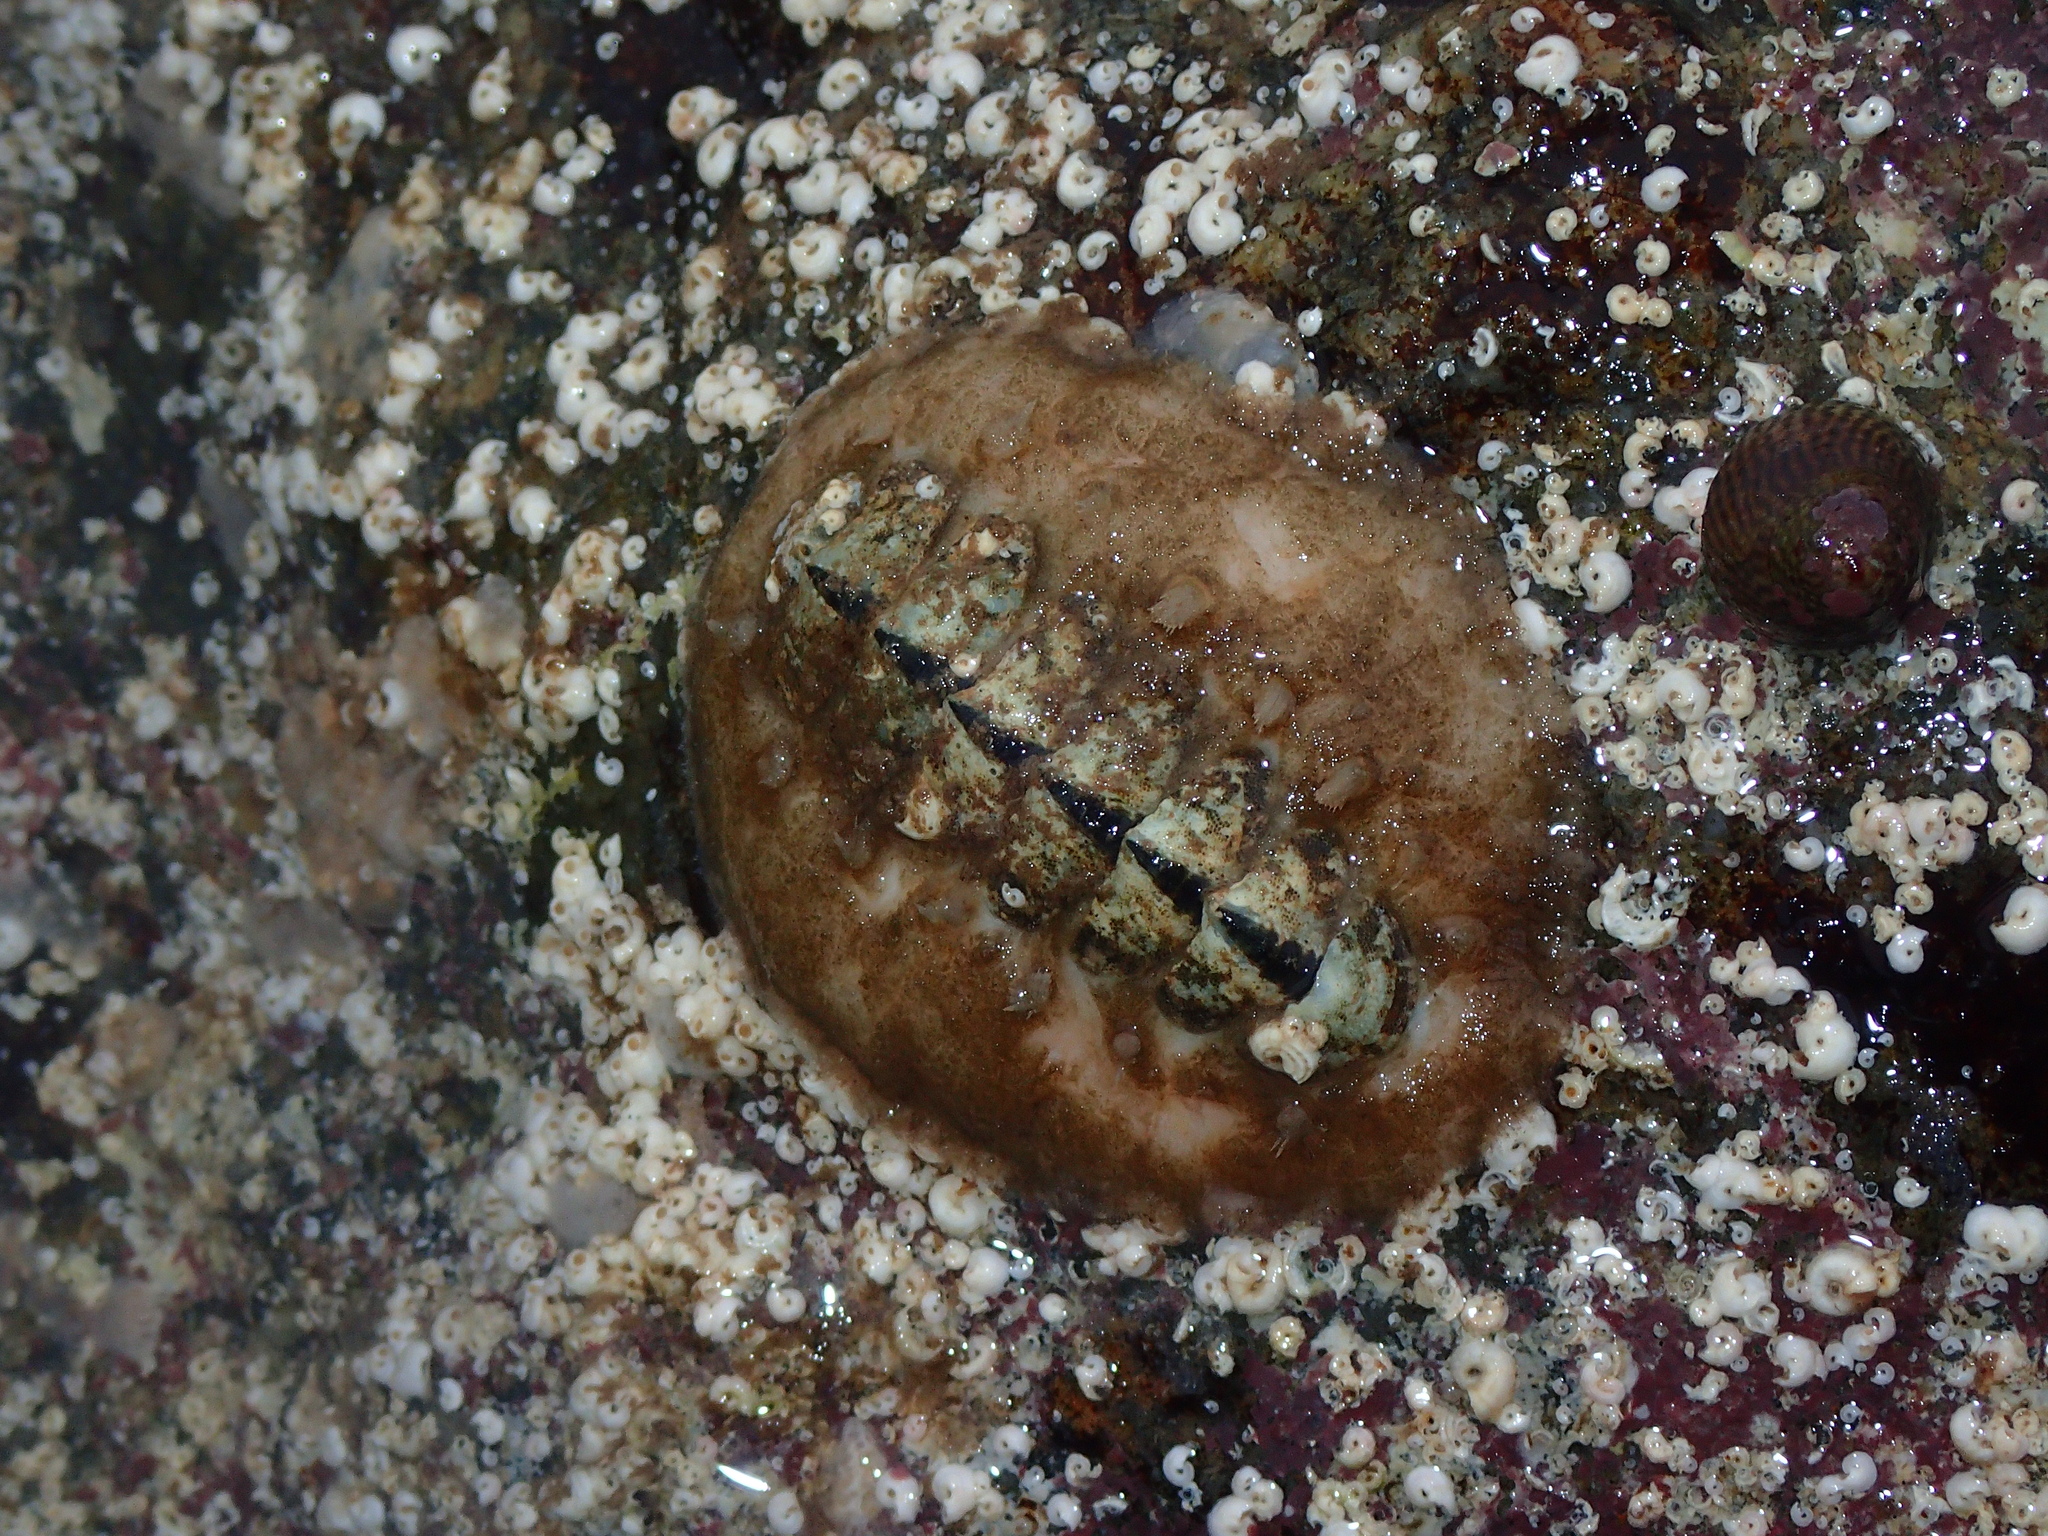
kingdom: Animalia
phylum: Mollusca
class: Polyplacophora
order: Chitonida
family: Acanthochitonidae
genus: Acanthochitona
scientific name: Acanthochitona fascicularis
